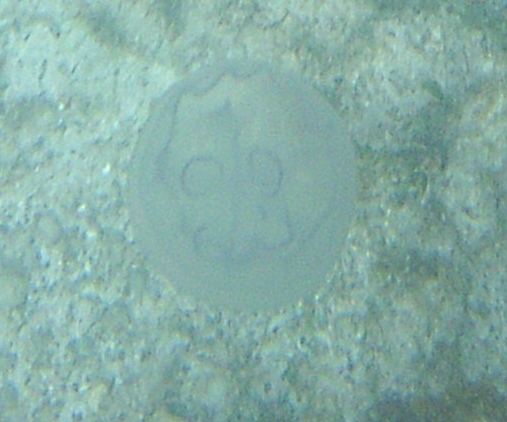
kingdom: Animalia
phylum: Cnidaria
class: Scyphozoa
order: Semaeostomeae
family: Ulmaridae
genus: Aurelia
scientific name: Aurelia marginalis
